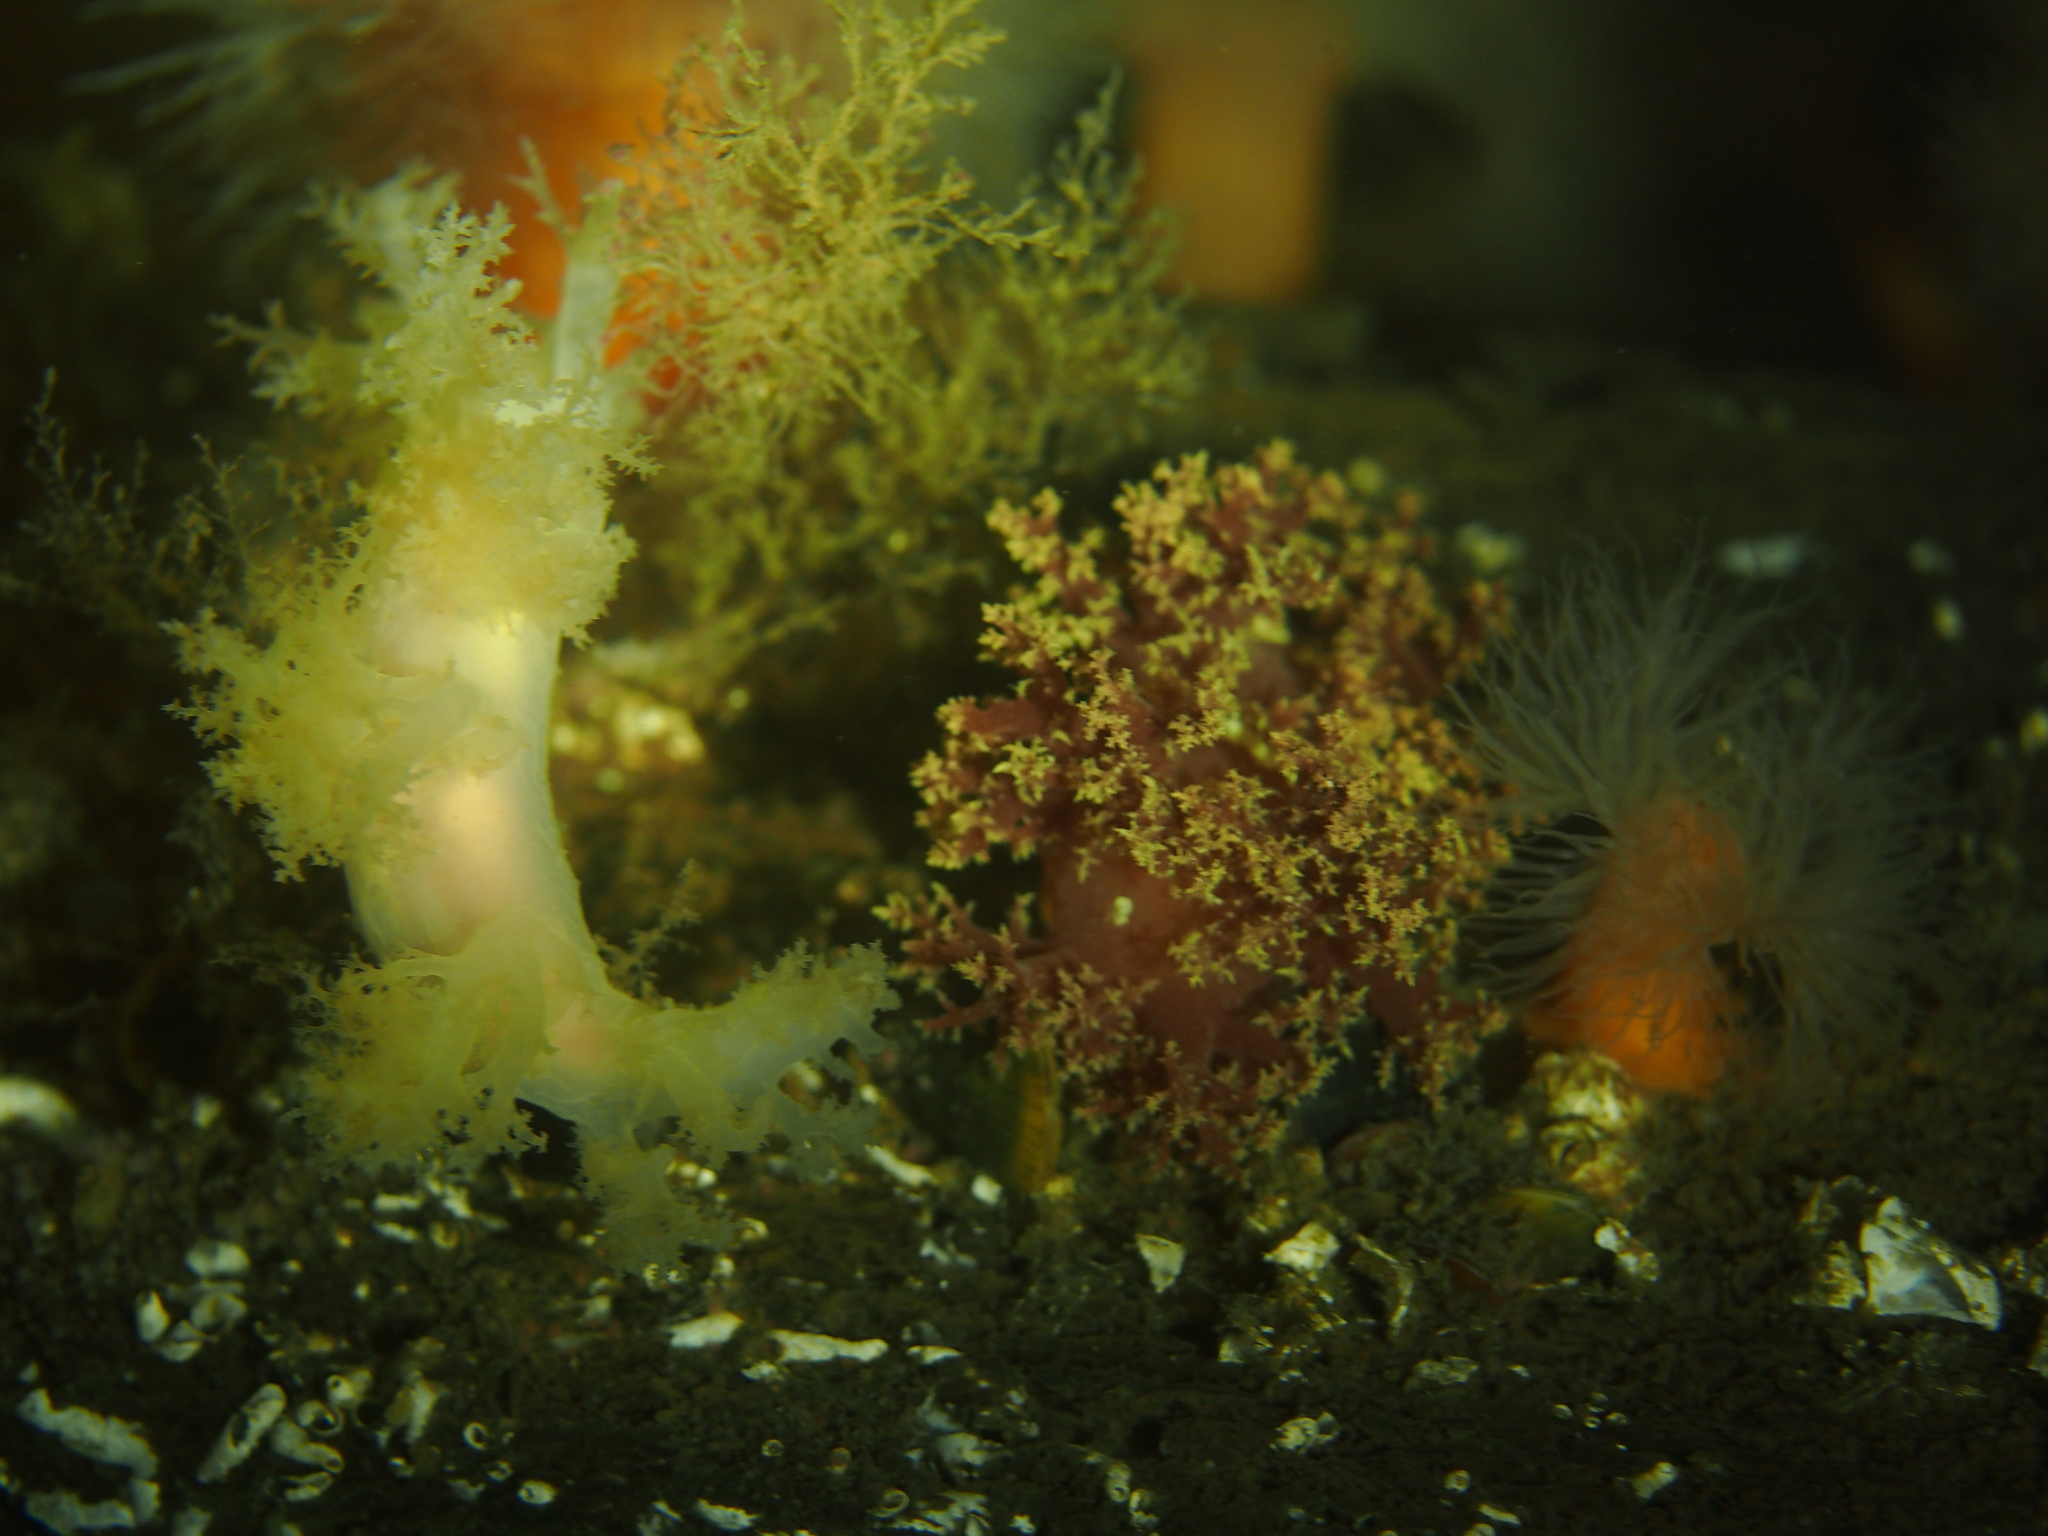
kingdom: Animalia
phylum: Mollusca
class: Gastropoda
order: Nudibranchia
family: Dendronotidae
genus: Dendronotus
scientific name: Dendronotus lacteus
